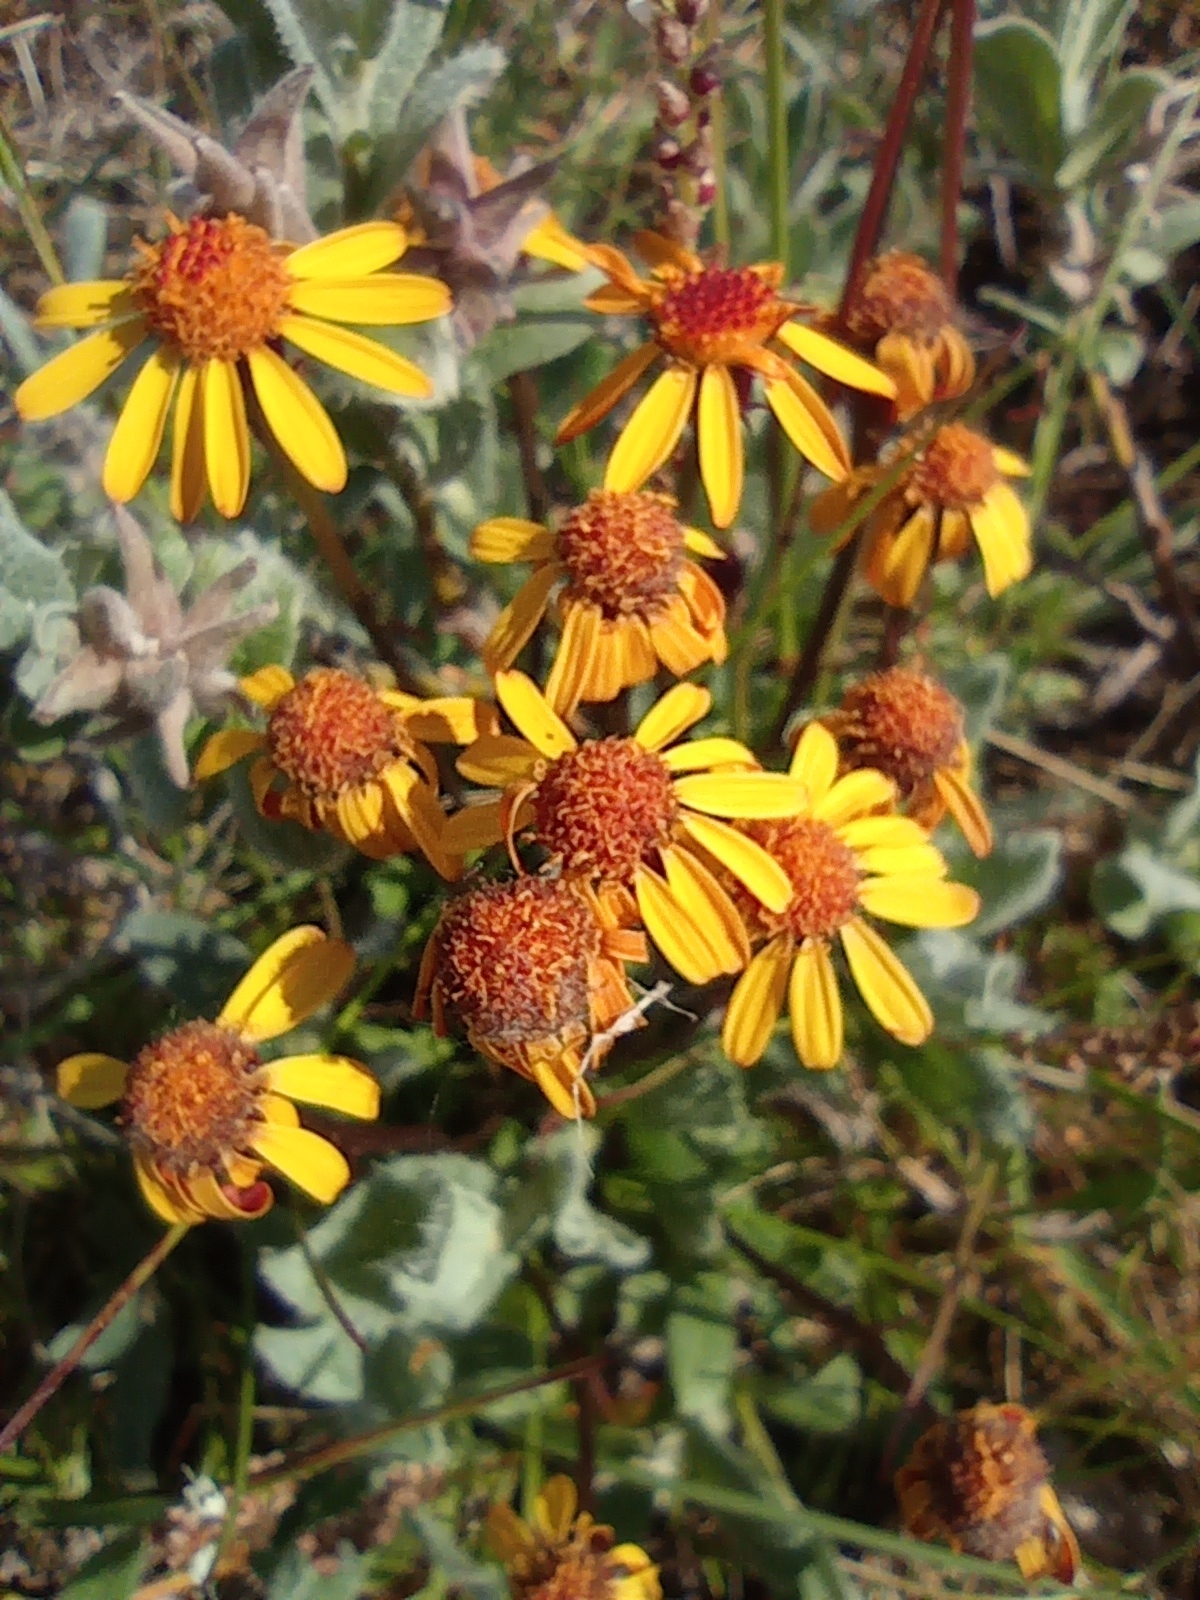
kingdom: Plantae
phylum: Tracheophyta
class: Magnoliopsida
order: Asterales
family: Asteraceae
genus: Packera
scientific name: Packera heterophylla
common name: Arctic butterweed
